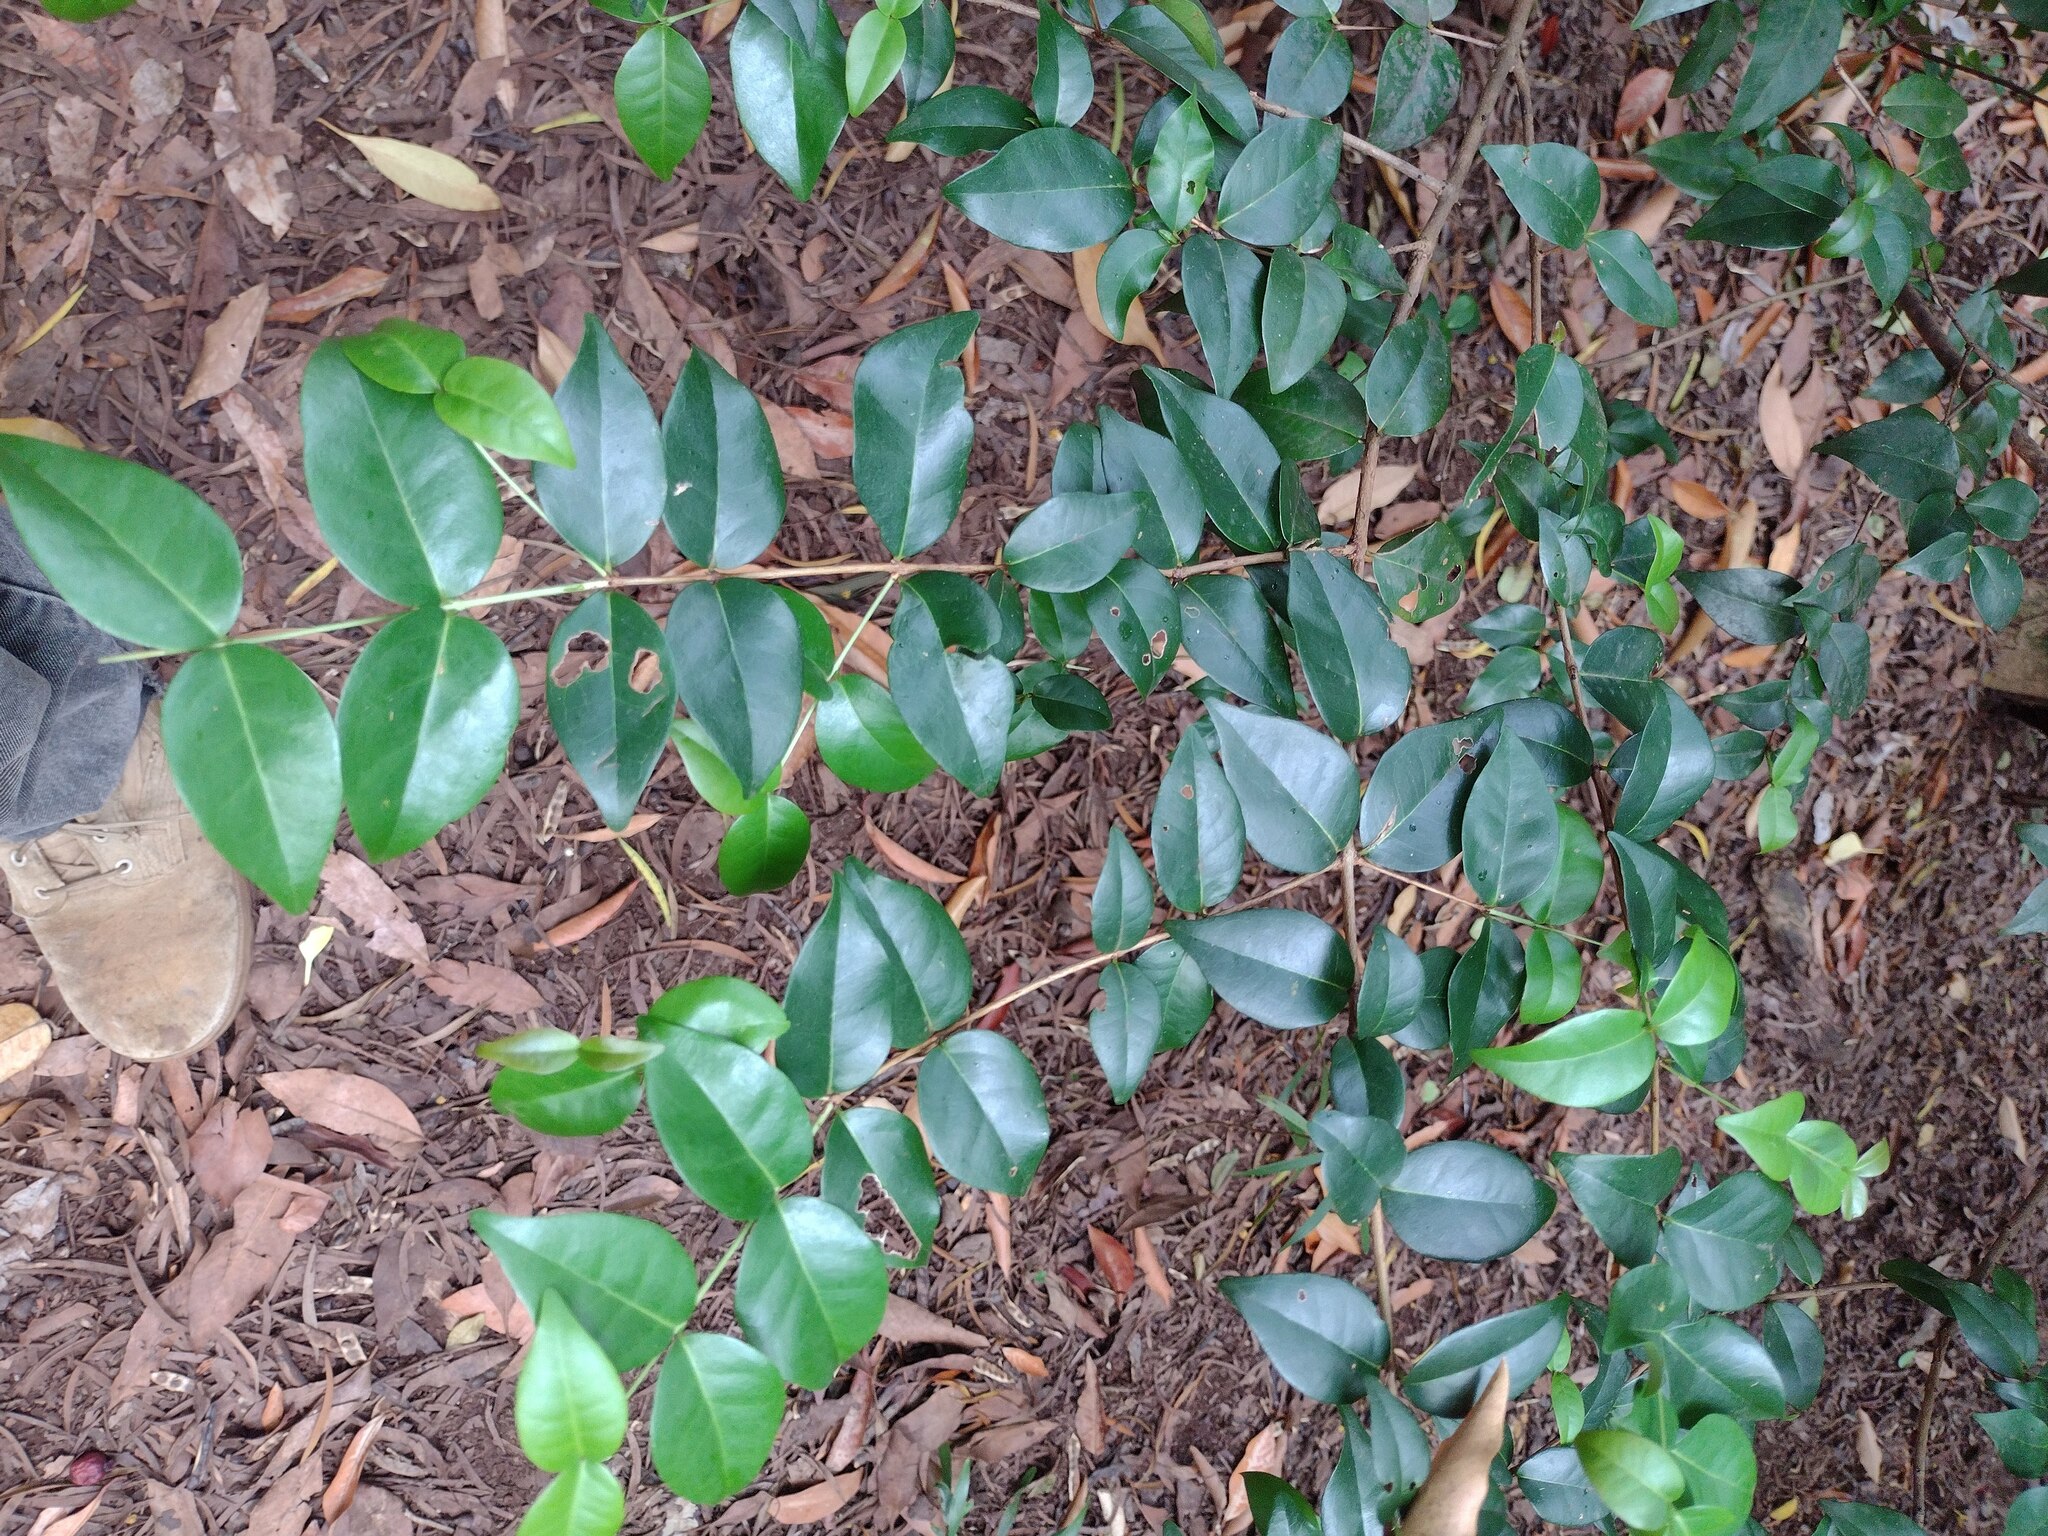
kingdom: Plantae
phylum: Tracheophyta
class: Magnoliopsida
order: Myrtales
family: Myrtaceae
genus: Eugenia
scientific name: Eugenia uniflora
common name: Surinam cherry
